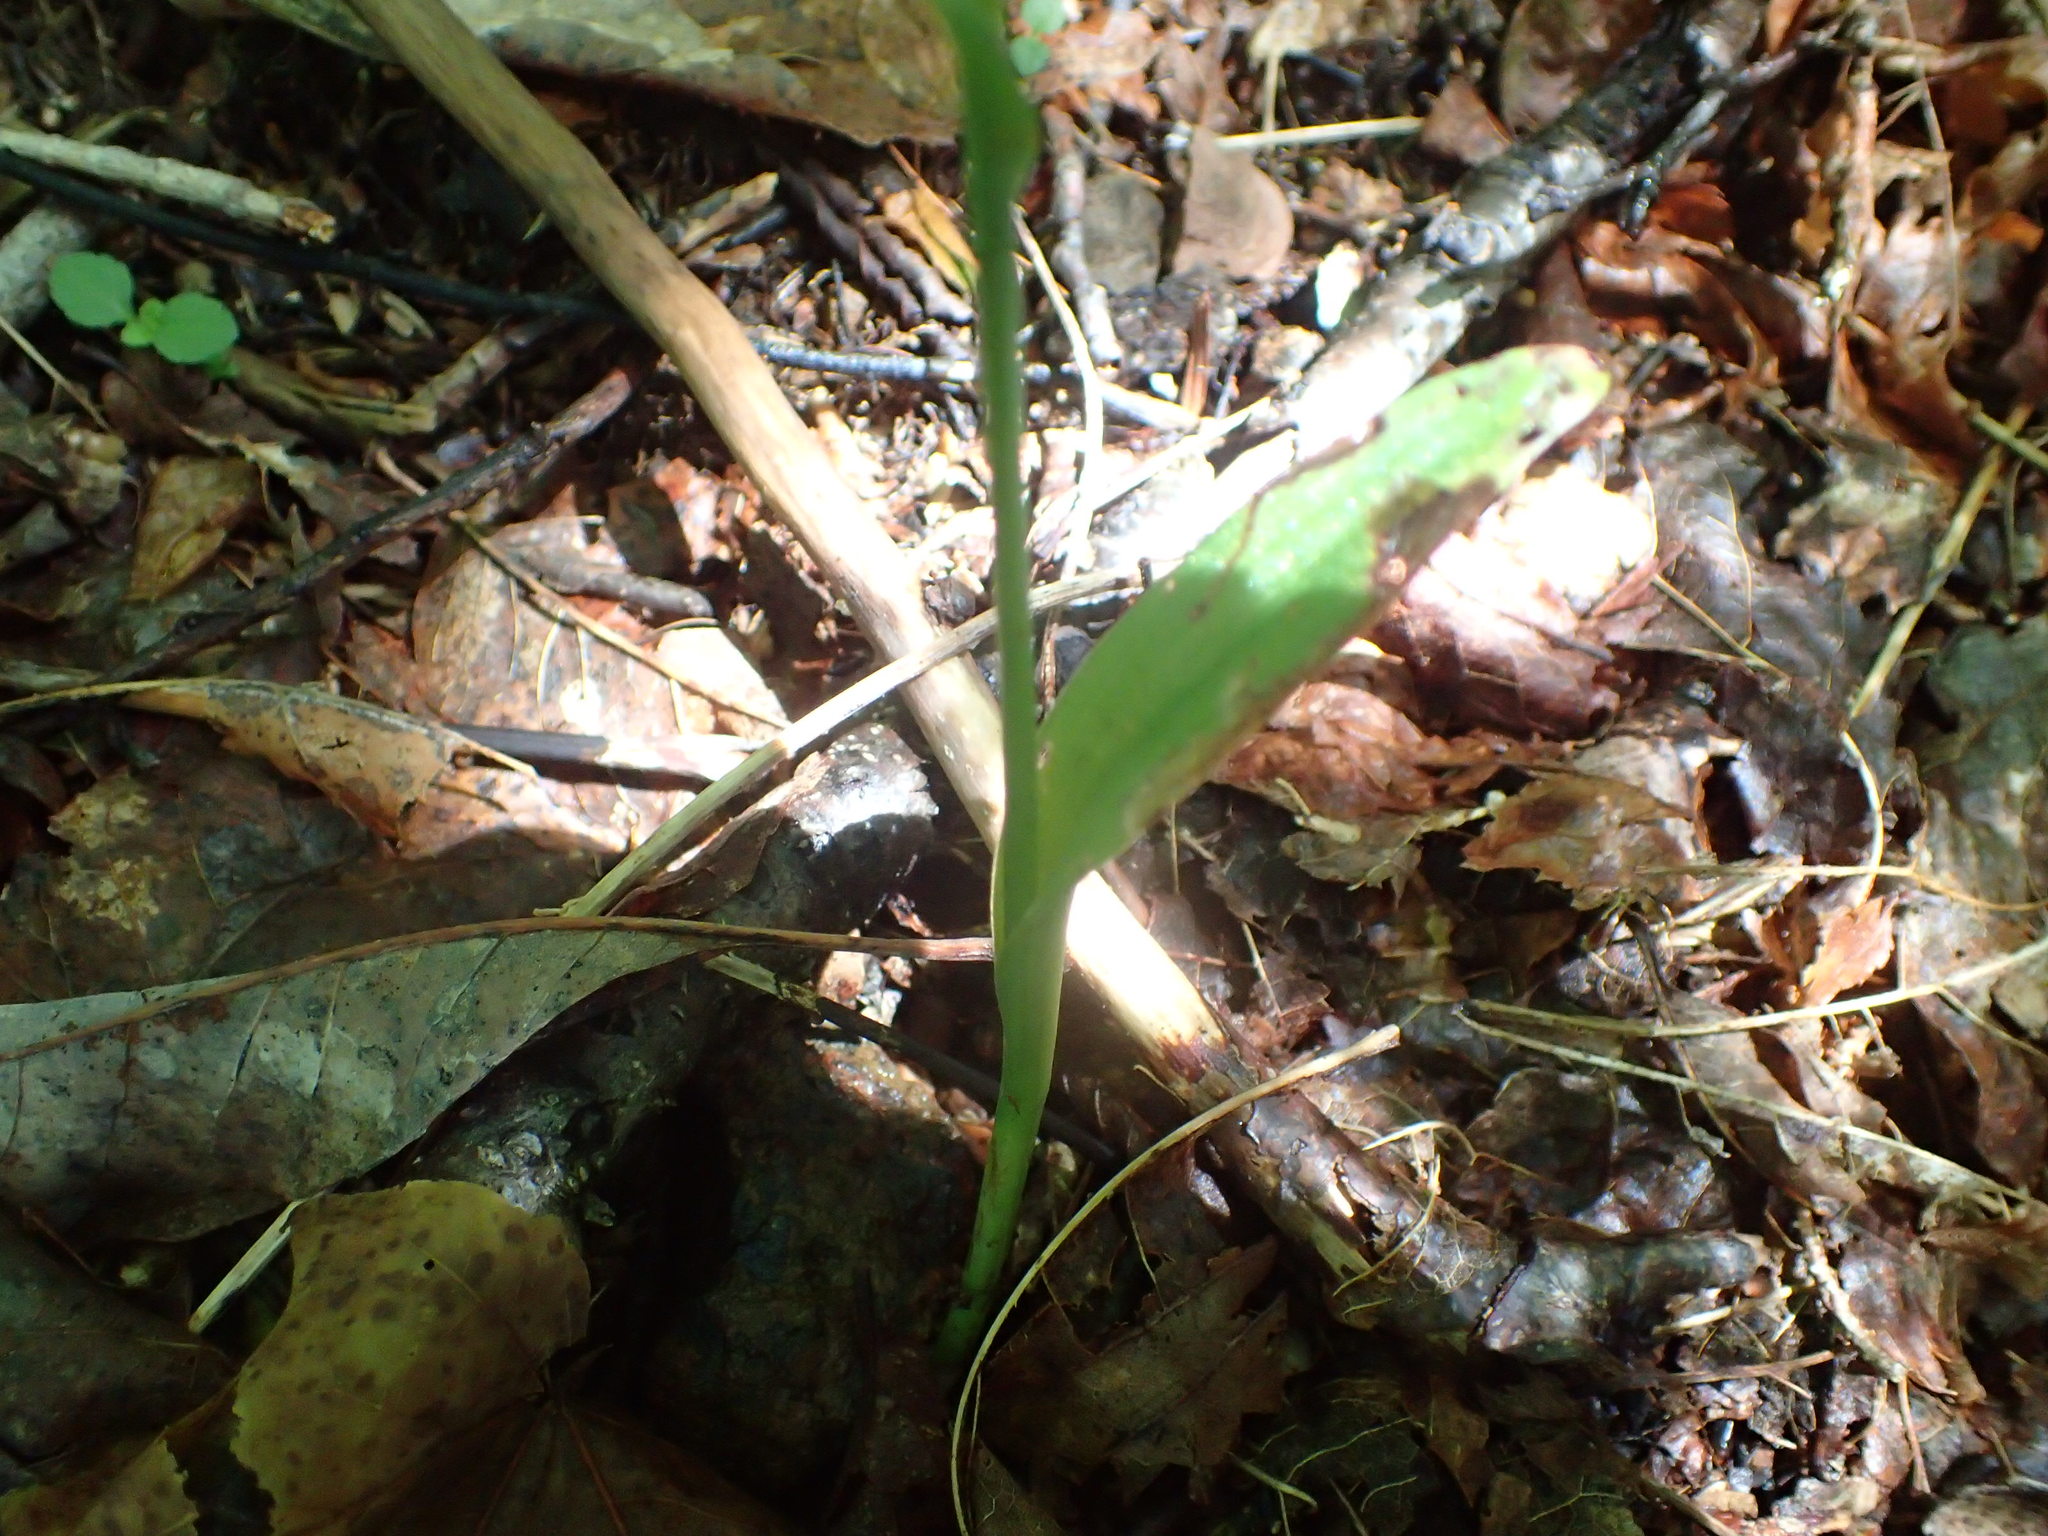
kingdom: Plantae
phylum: Tracheophyta
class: Liliopsida
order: Asparagales
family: Orchidaceae
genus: Platanthera
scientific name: Platanthera aquilonis
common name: Northern green orchid
